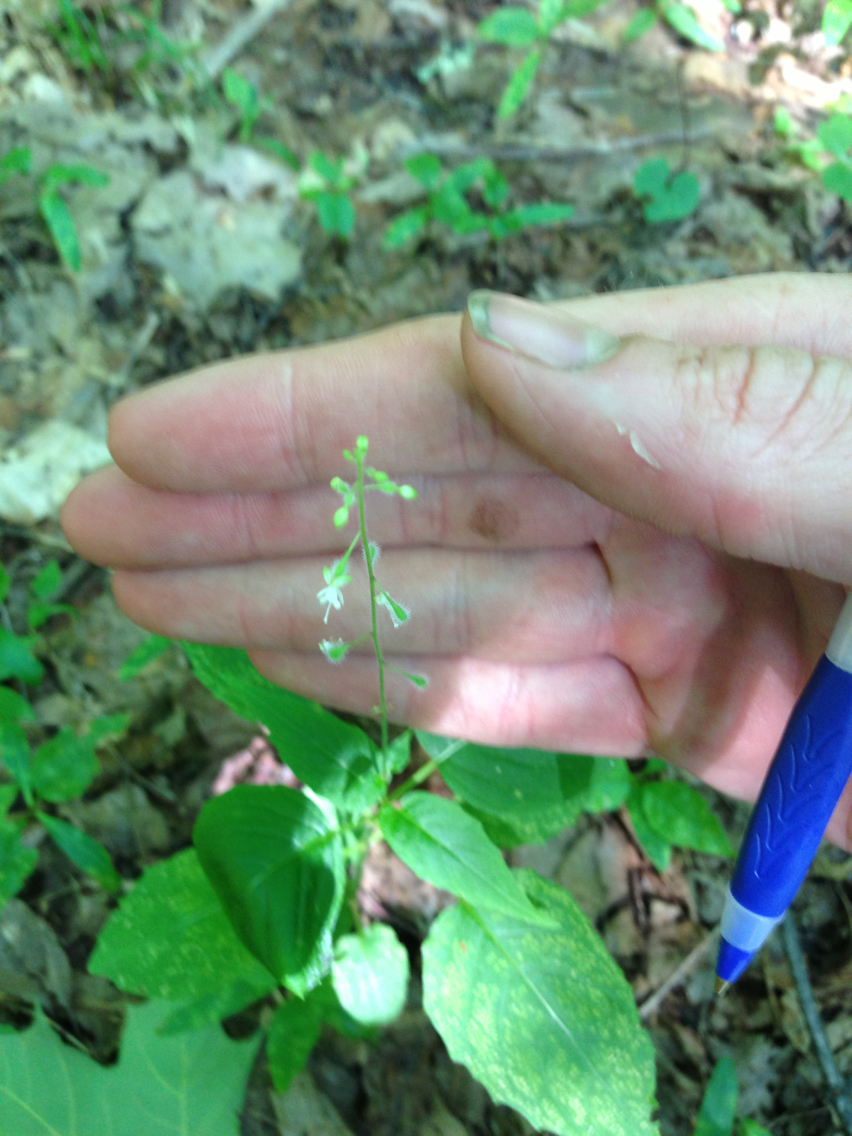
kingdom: Plantae
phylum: Tracheophyta
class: Magnoliopsida
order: Myrtales
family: Onagraceae
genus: Circaea
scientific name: Circaea canadensis
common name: Broad-leaved enchanter's nightshade
